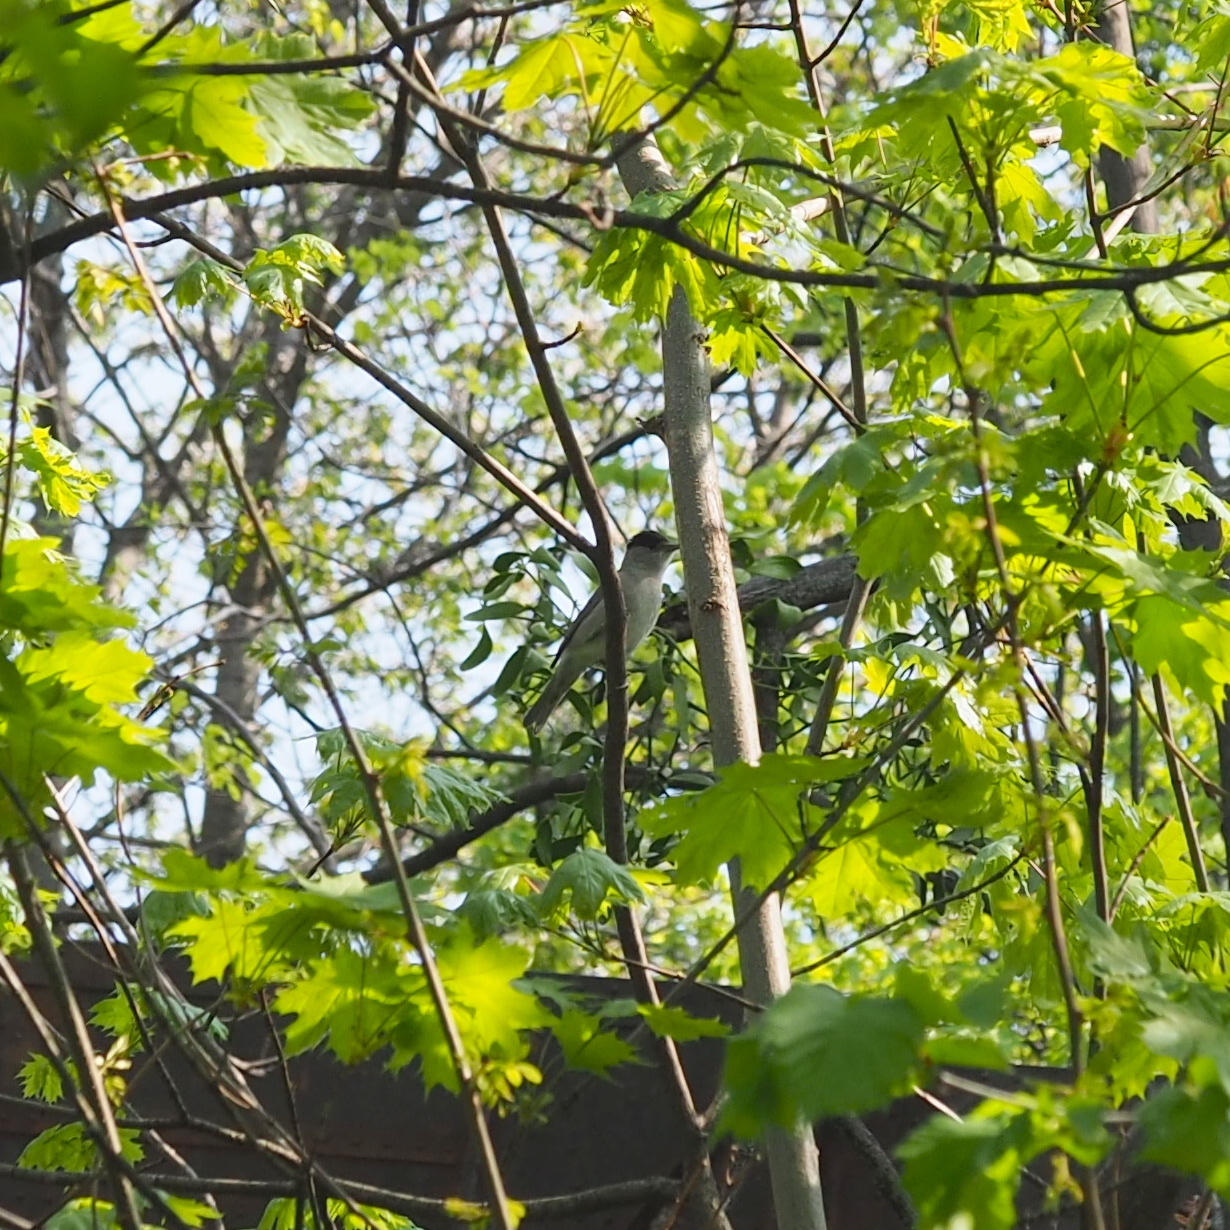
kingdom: Animalia
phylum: Chordata
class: Aves
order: Passeriformes
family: Sylviidae
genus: Sylvia
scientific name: Sylvia atricapilla
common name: Eurasian blackcap
